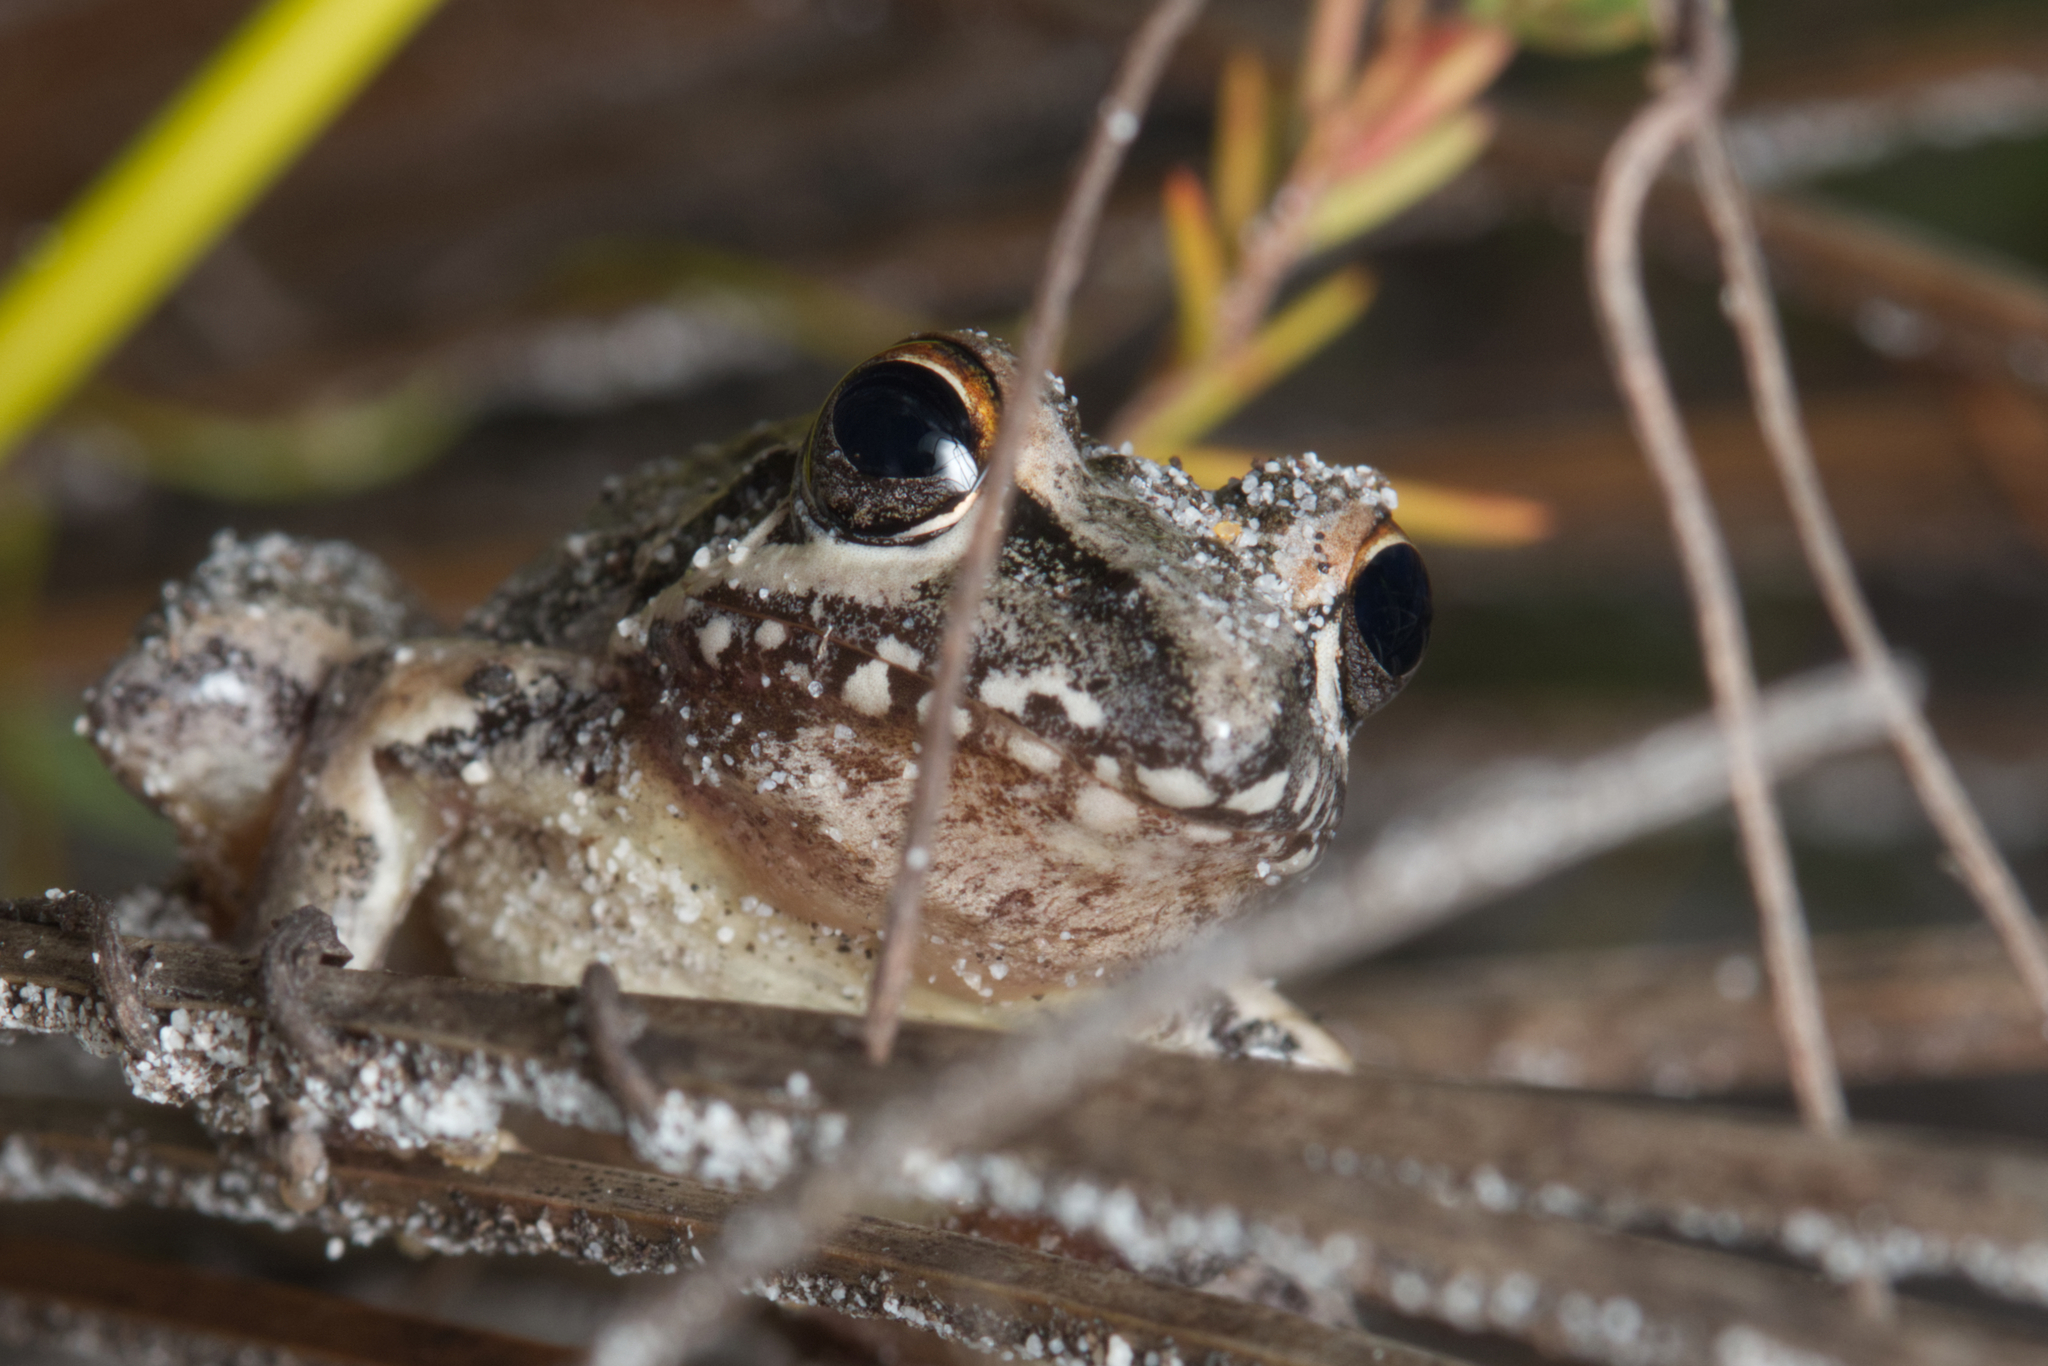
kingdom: Animalia
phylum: Chordata
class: Amphibia
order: Anura
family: Pelodryadidae
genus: Litoria
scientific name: Litoria freycineti
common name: Freycinet’s frog
